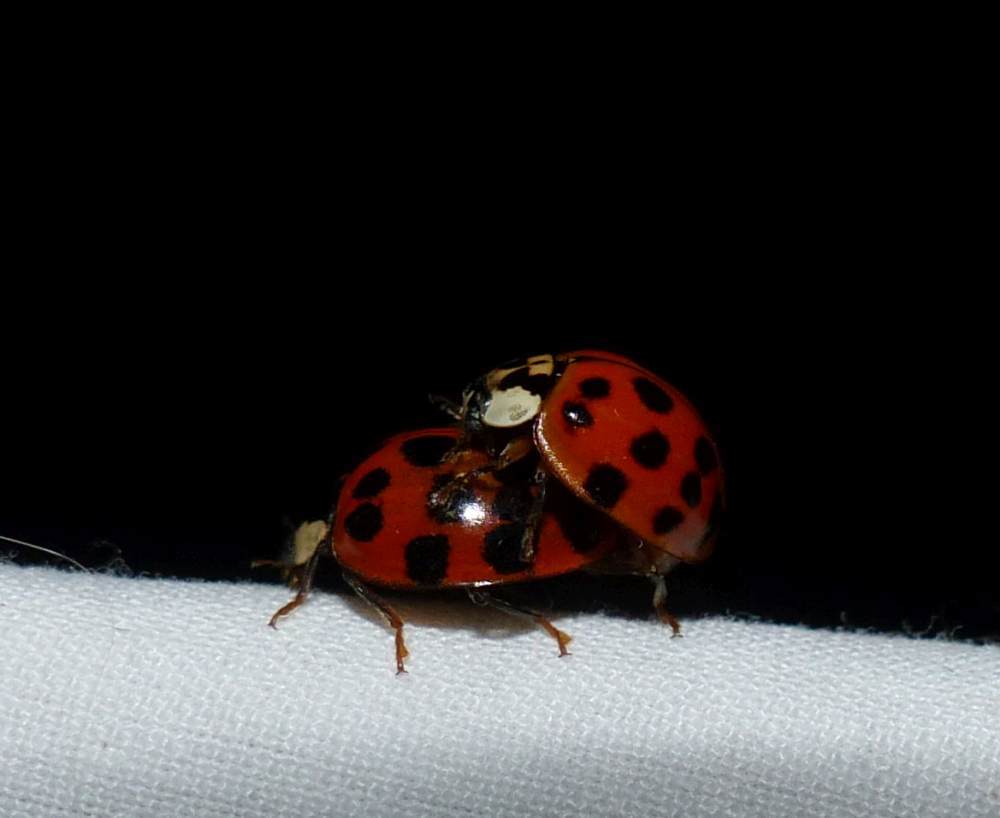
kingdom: Animalia
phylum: Arthropoda
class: Insecta
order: Coleoptera
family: Coccinellidae
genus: Harmonia
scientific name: Harmonia axyridis
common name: Harlequin ladybird
